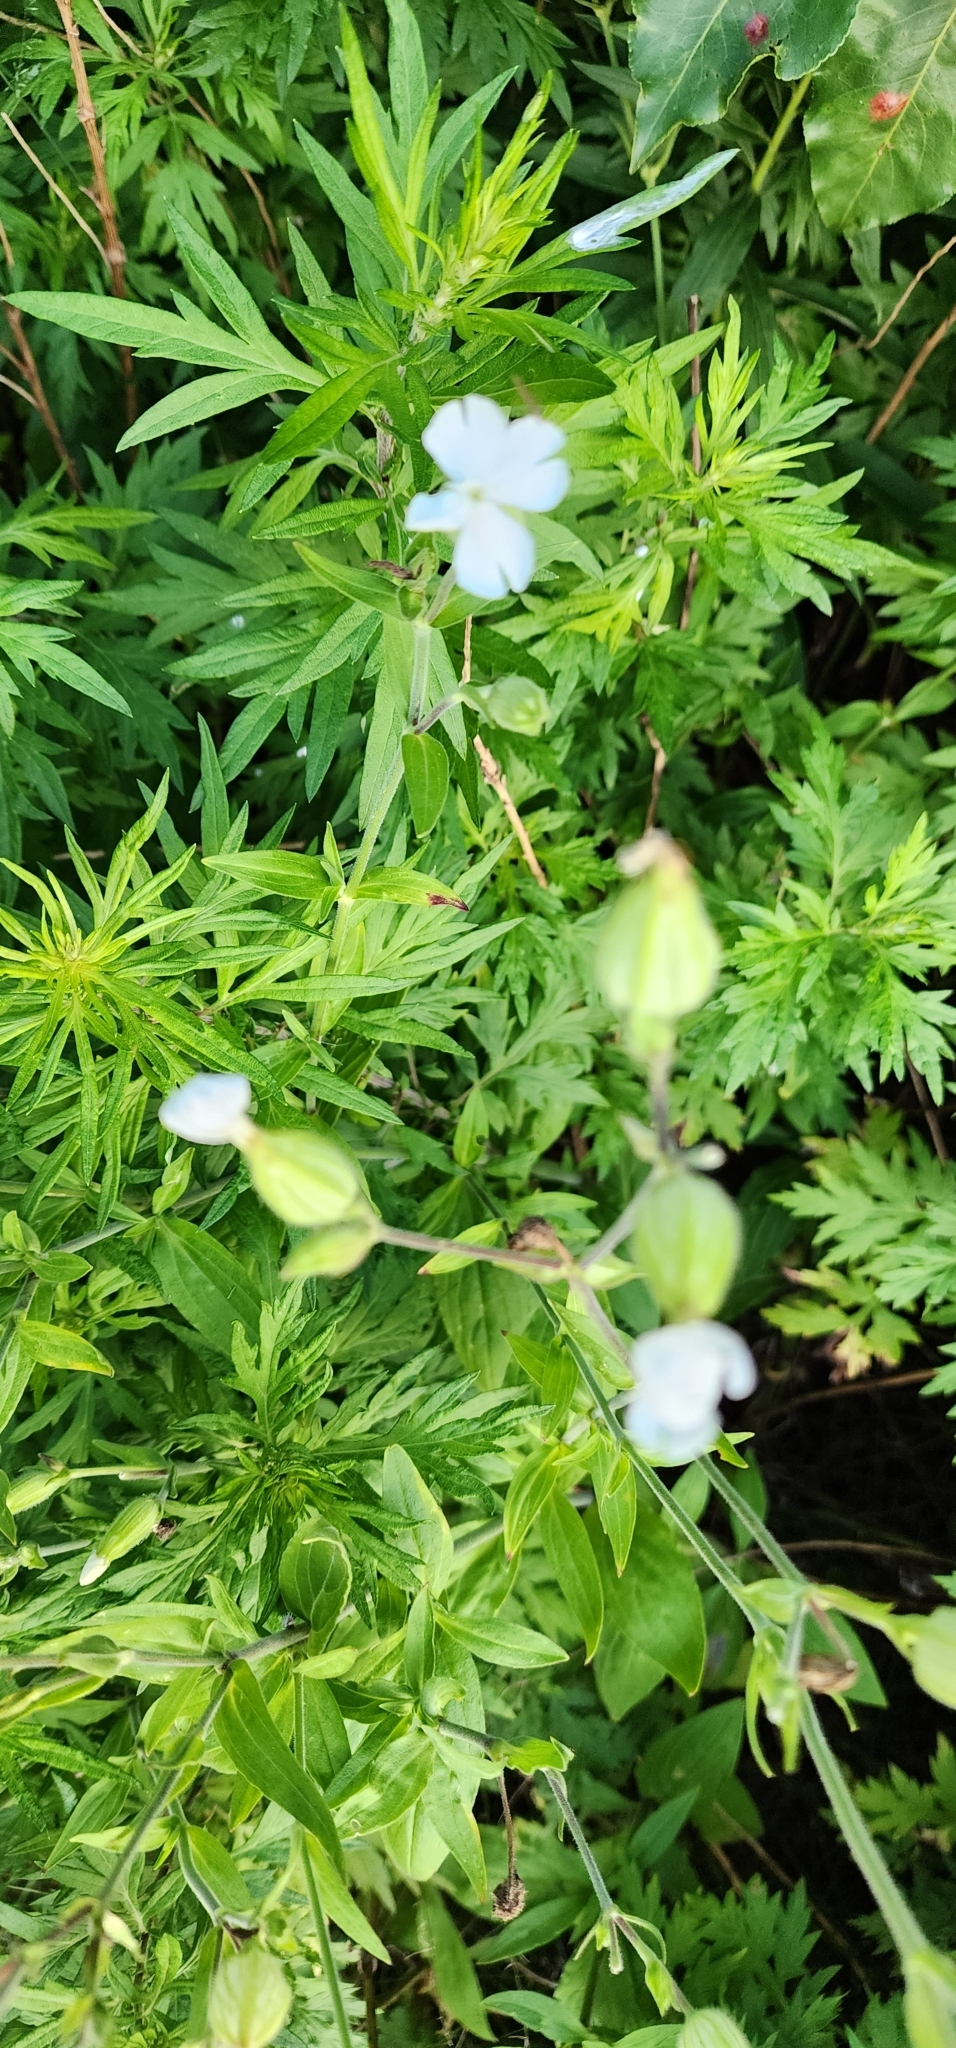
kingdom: Plantae
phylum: Tracheophyta
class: Magnoliopsida
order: Caryophyllales
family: Caryophyllaceae
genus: Silene
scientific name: Silene latifolia
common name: White campion
